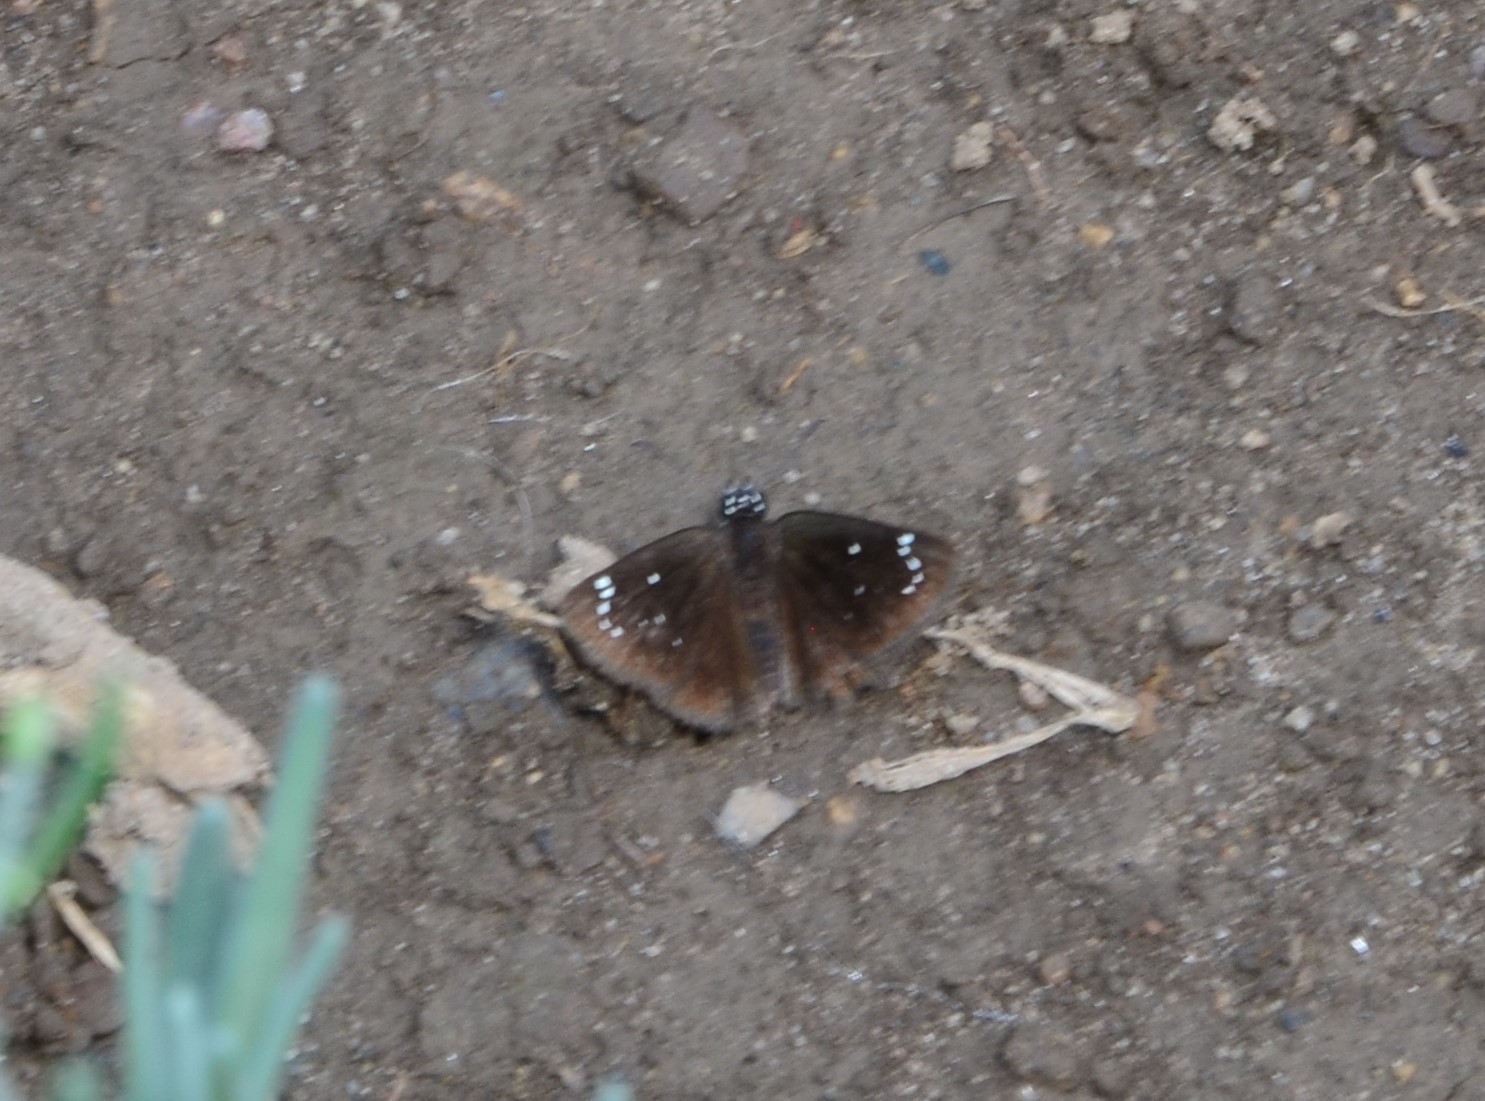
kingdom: Animalia
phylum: Arthropoda
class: Insecta
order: Lepidoptera
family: Hesperiidae
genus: Pholisora
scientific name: Pholisora catullus
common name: Common sootywing
